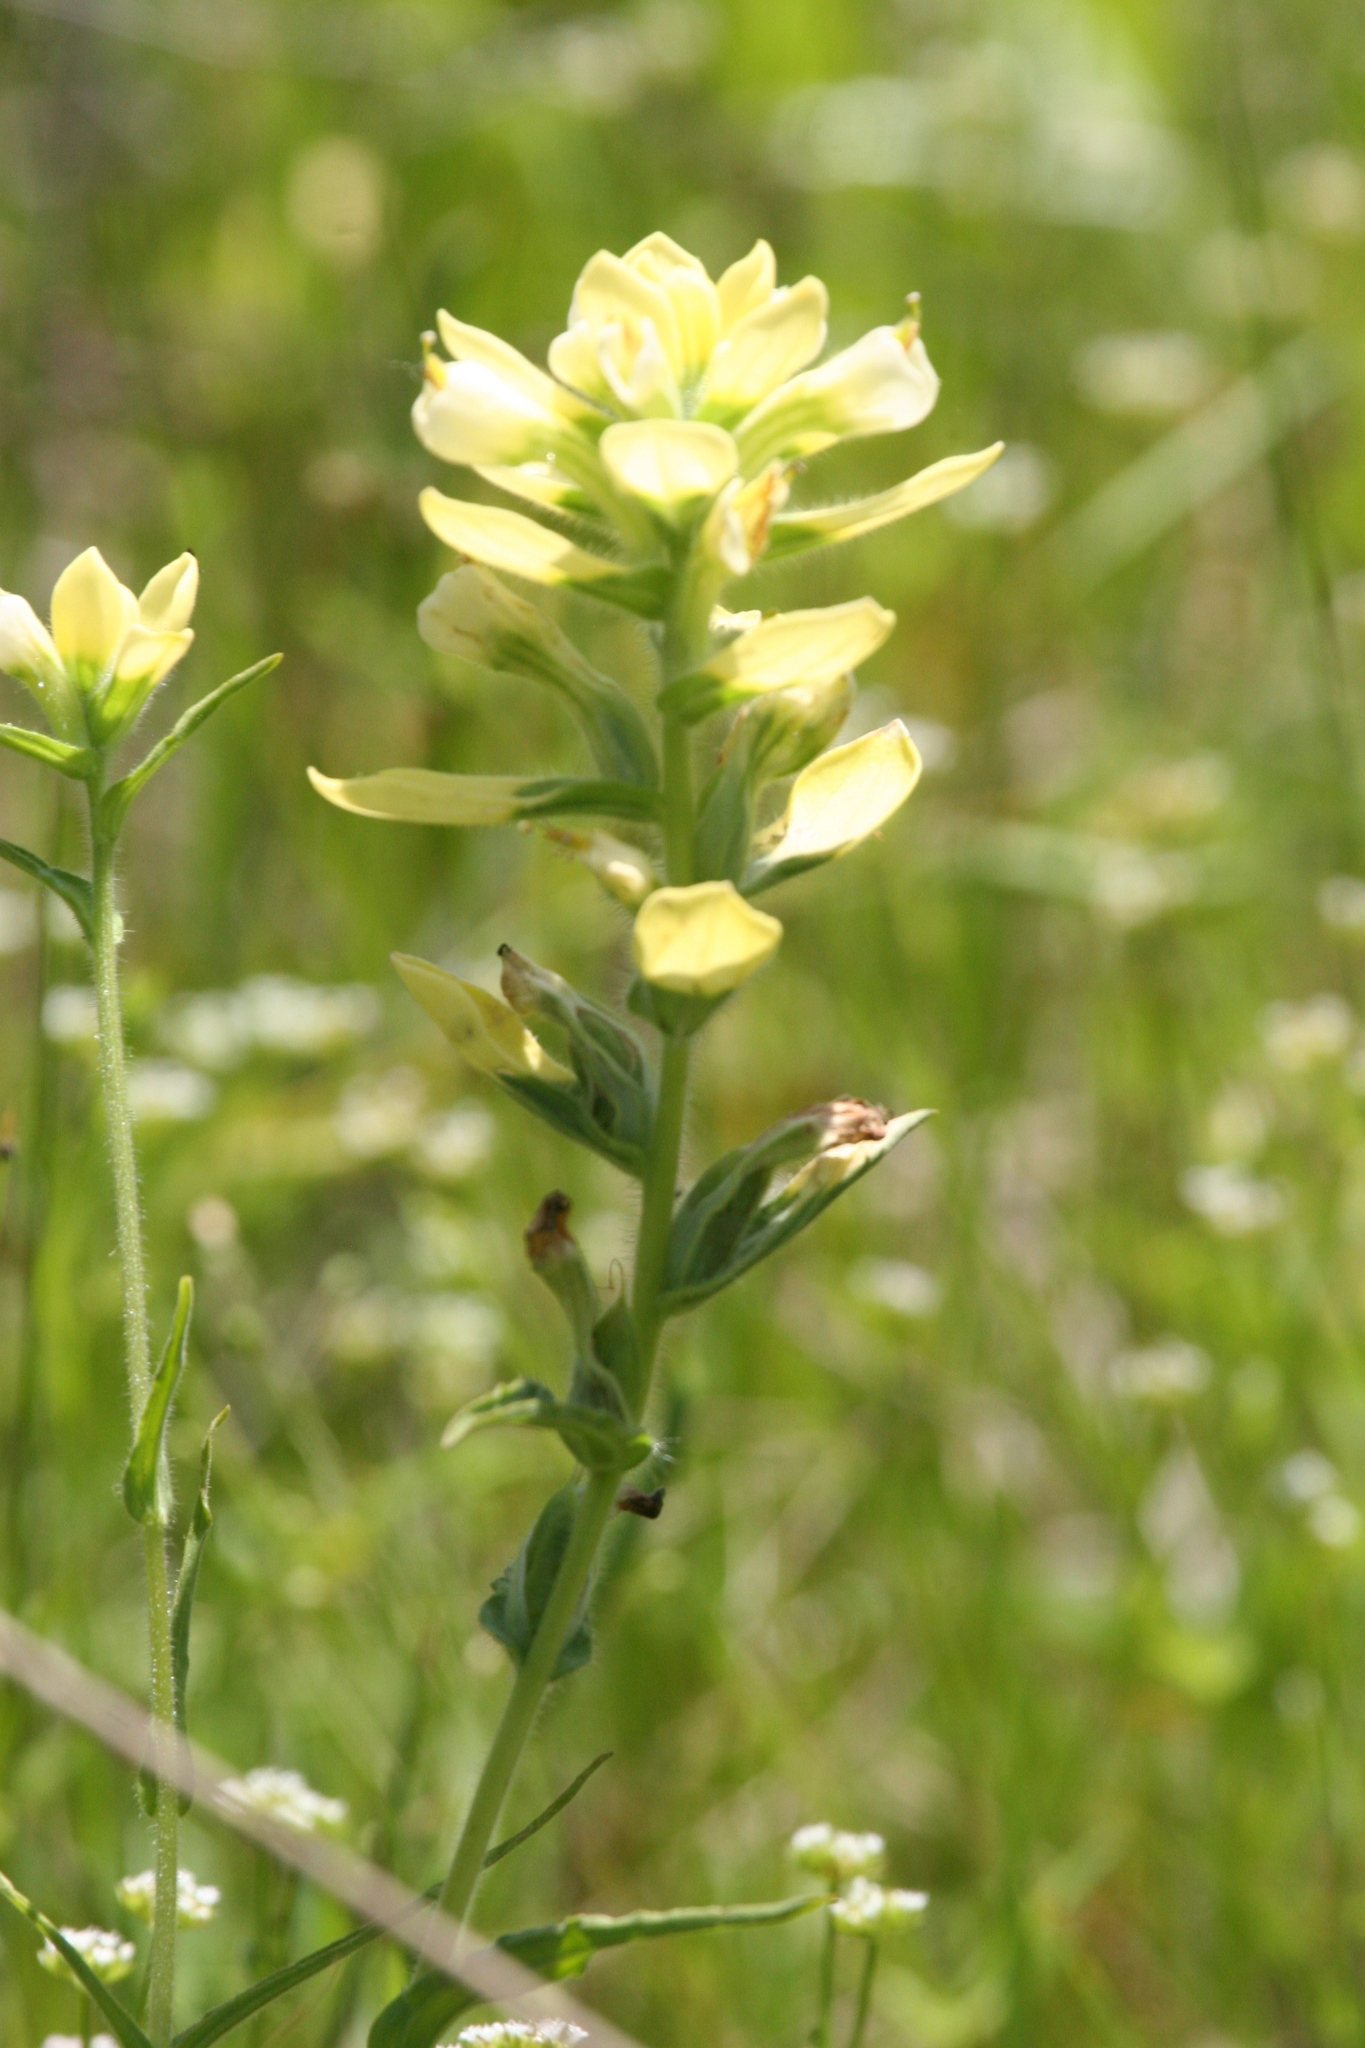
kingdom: Plantae
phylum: Tracheophyta
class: Magnoliopsida
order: Lamiales
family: Orobanchaceae
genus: Castilleja
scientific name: Castilleja indivisa
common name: Texas paintbrush
